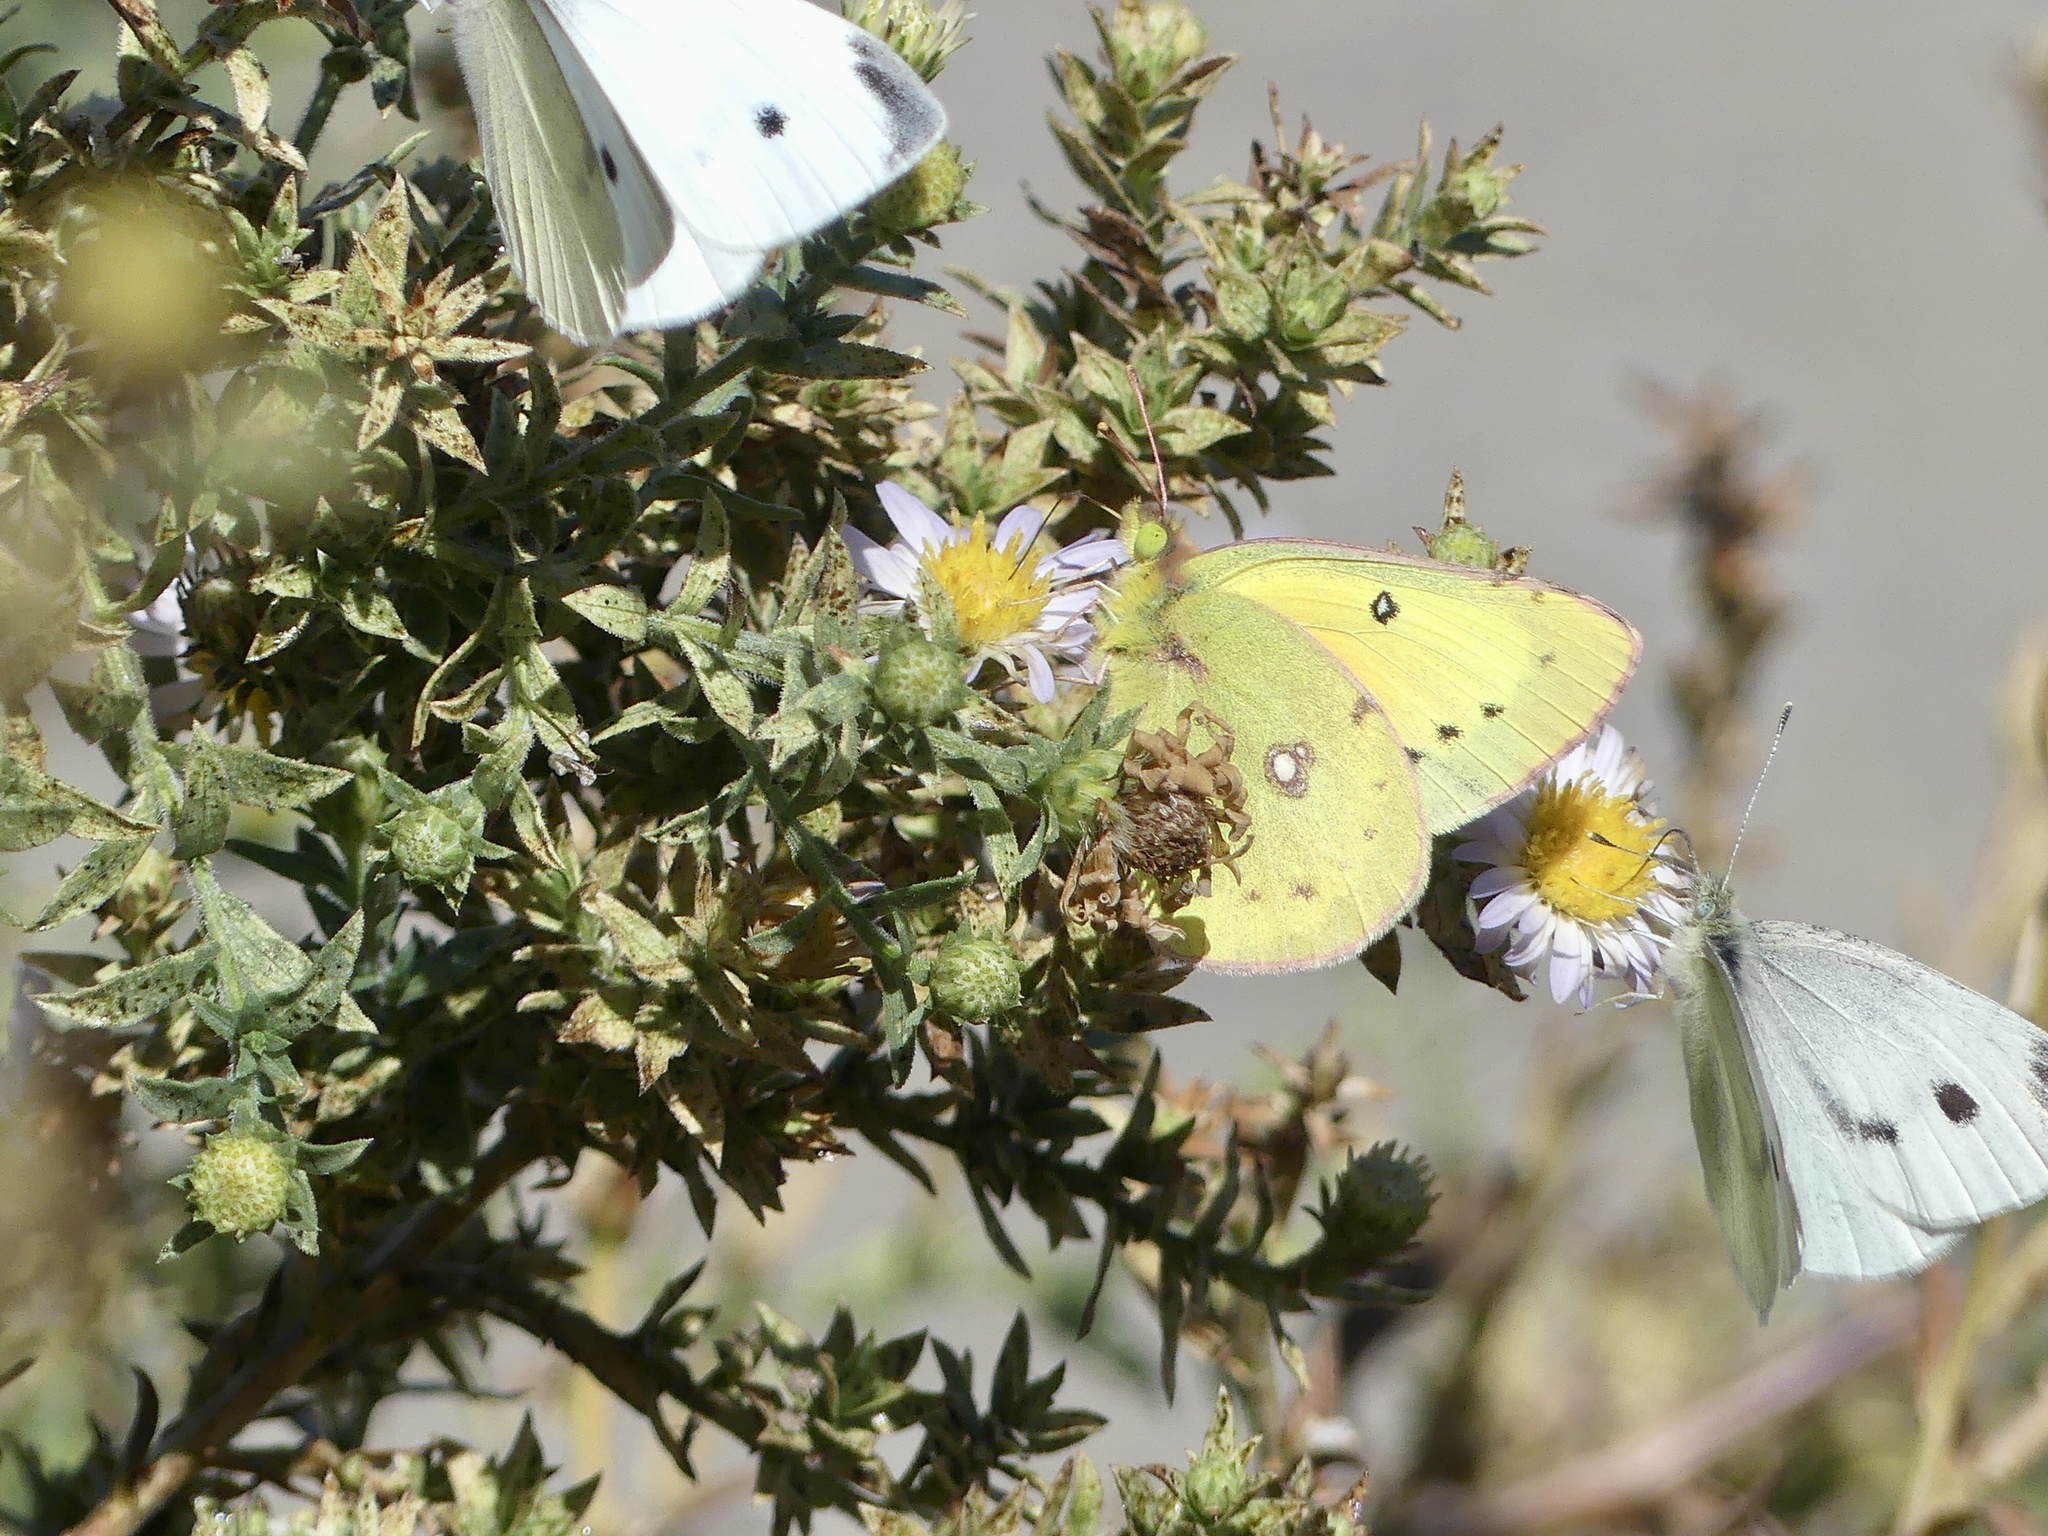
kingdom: Animalia
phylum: Arthropoda
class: Insecta
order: Lepidoptera
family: Pieridae
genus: Colias
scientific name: Colias eurytheme
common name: Alfalfa butterfly
